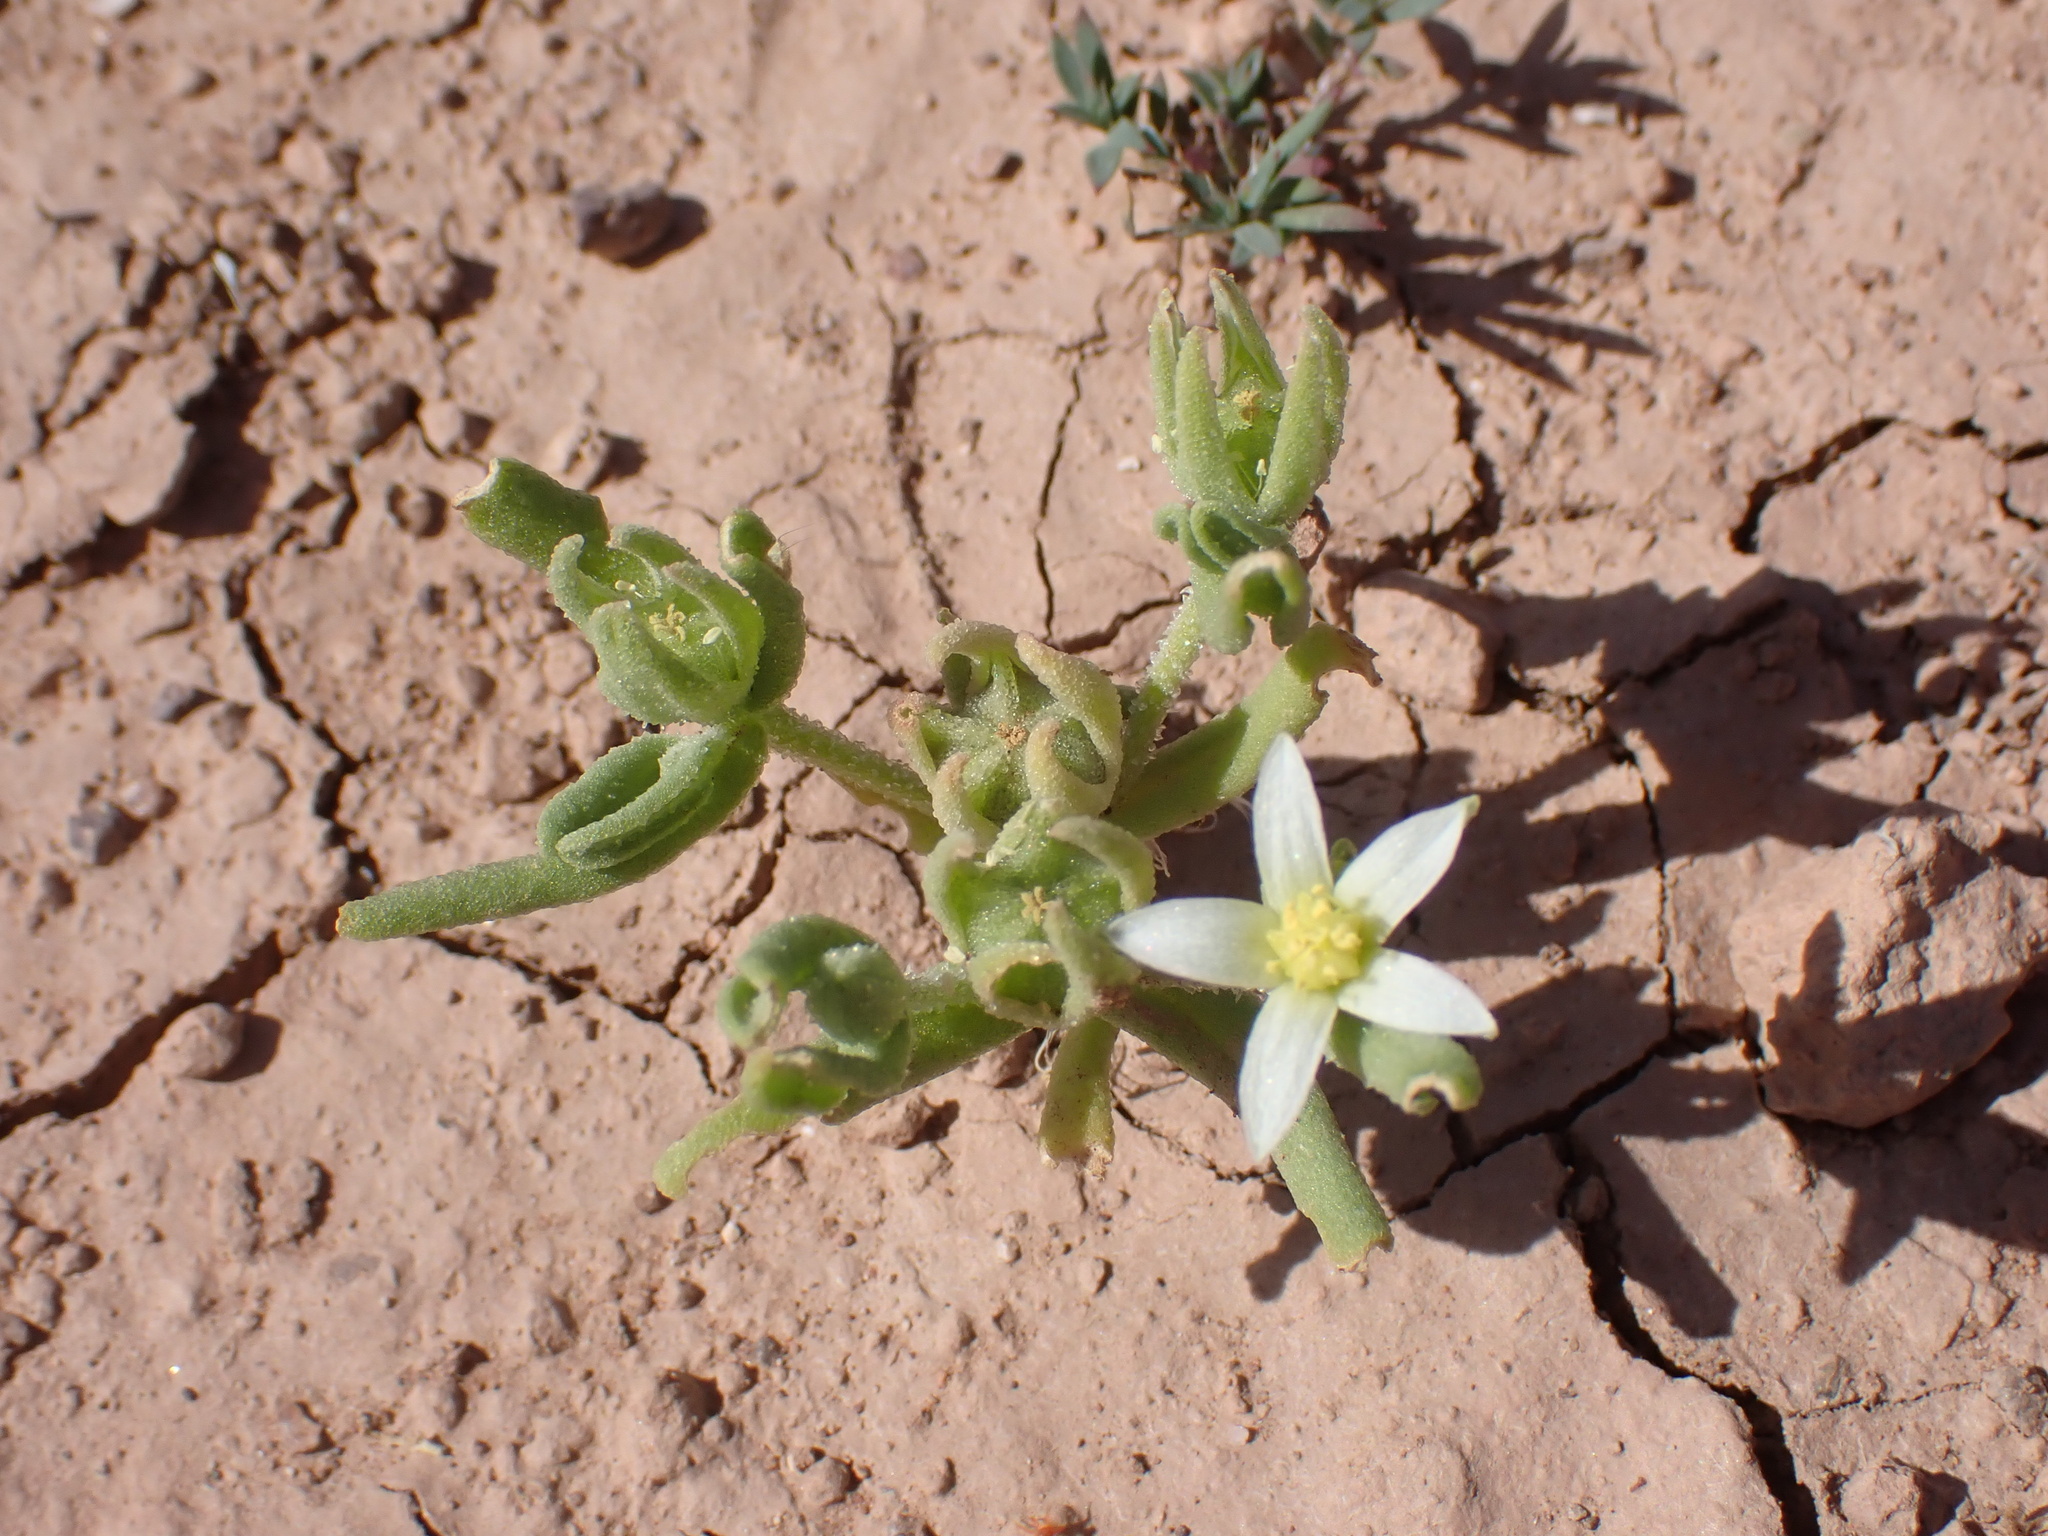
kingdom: Plantae
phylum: Tracheophyta
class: Magnoliopsida
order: Caryophyllales
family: Aizoaceae
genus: Aizoanthemopsis
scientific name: Aizoanthemopsis hispanica
